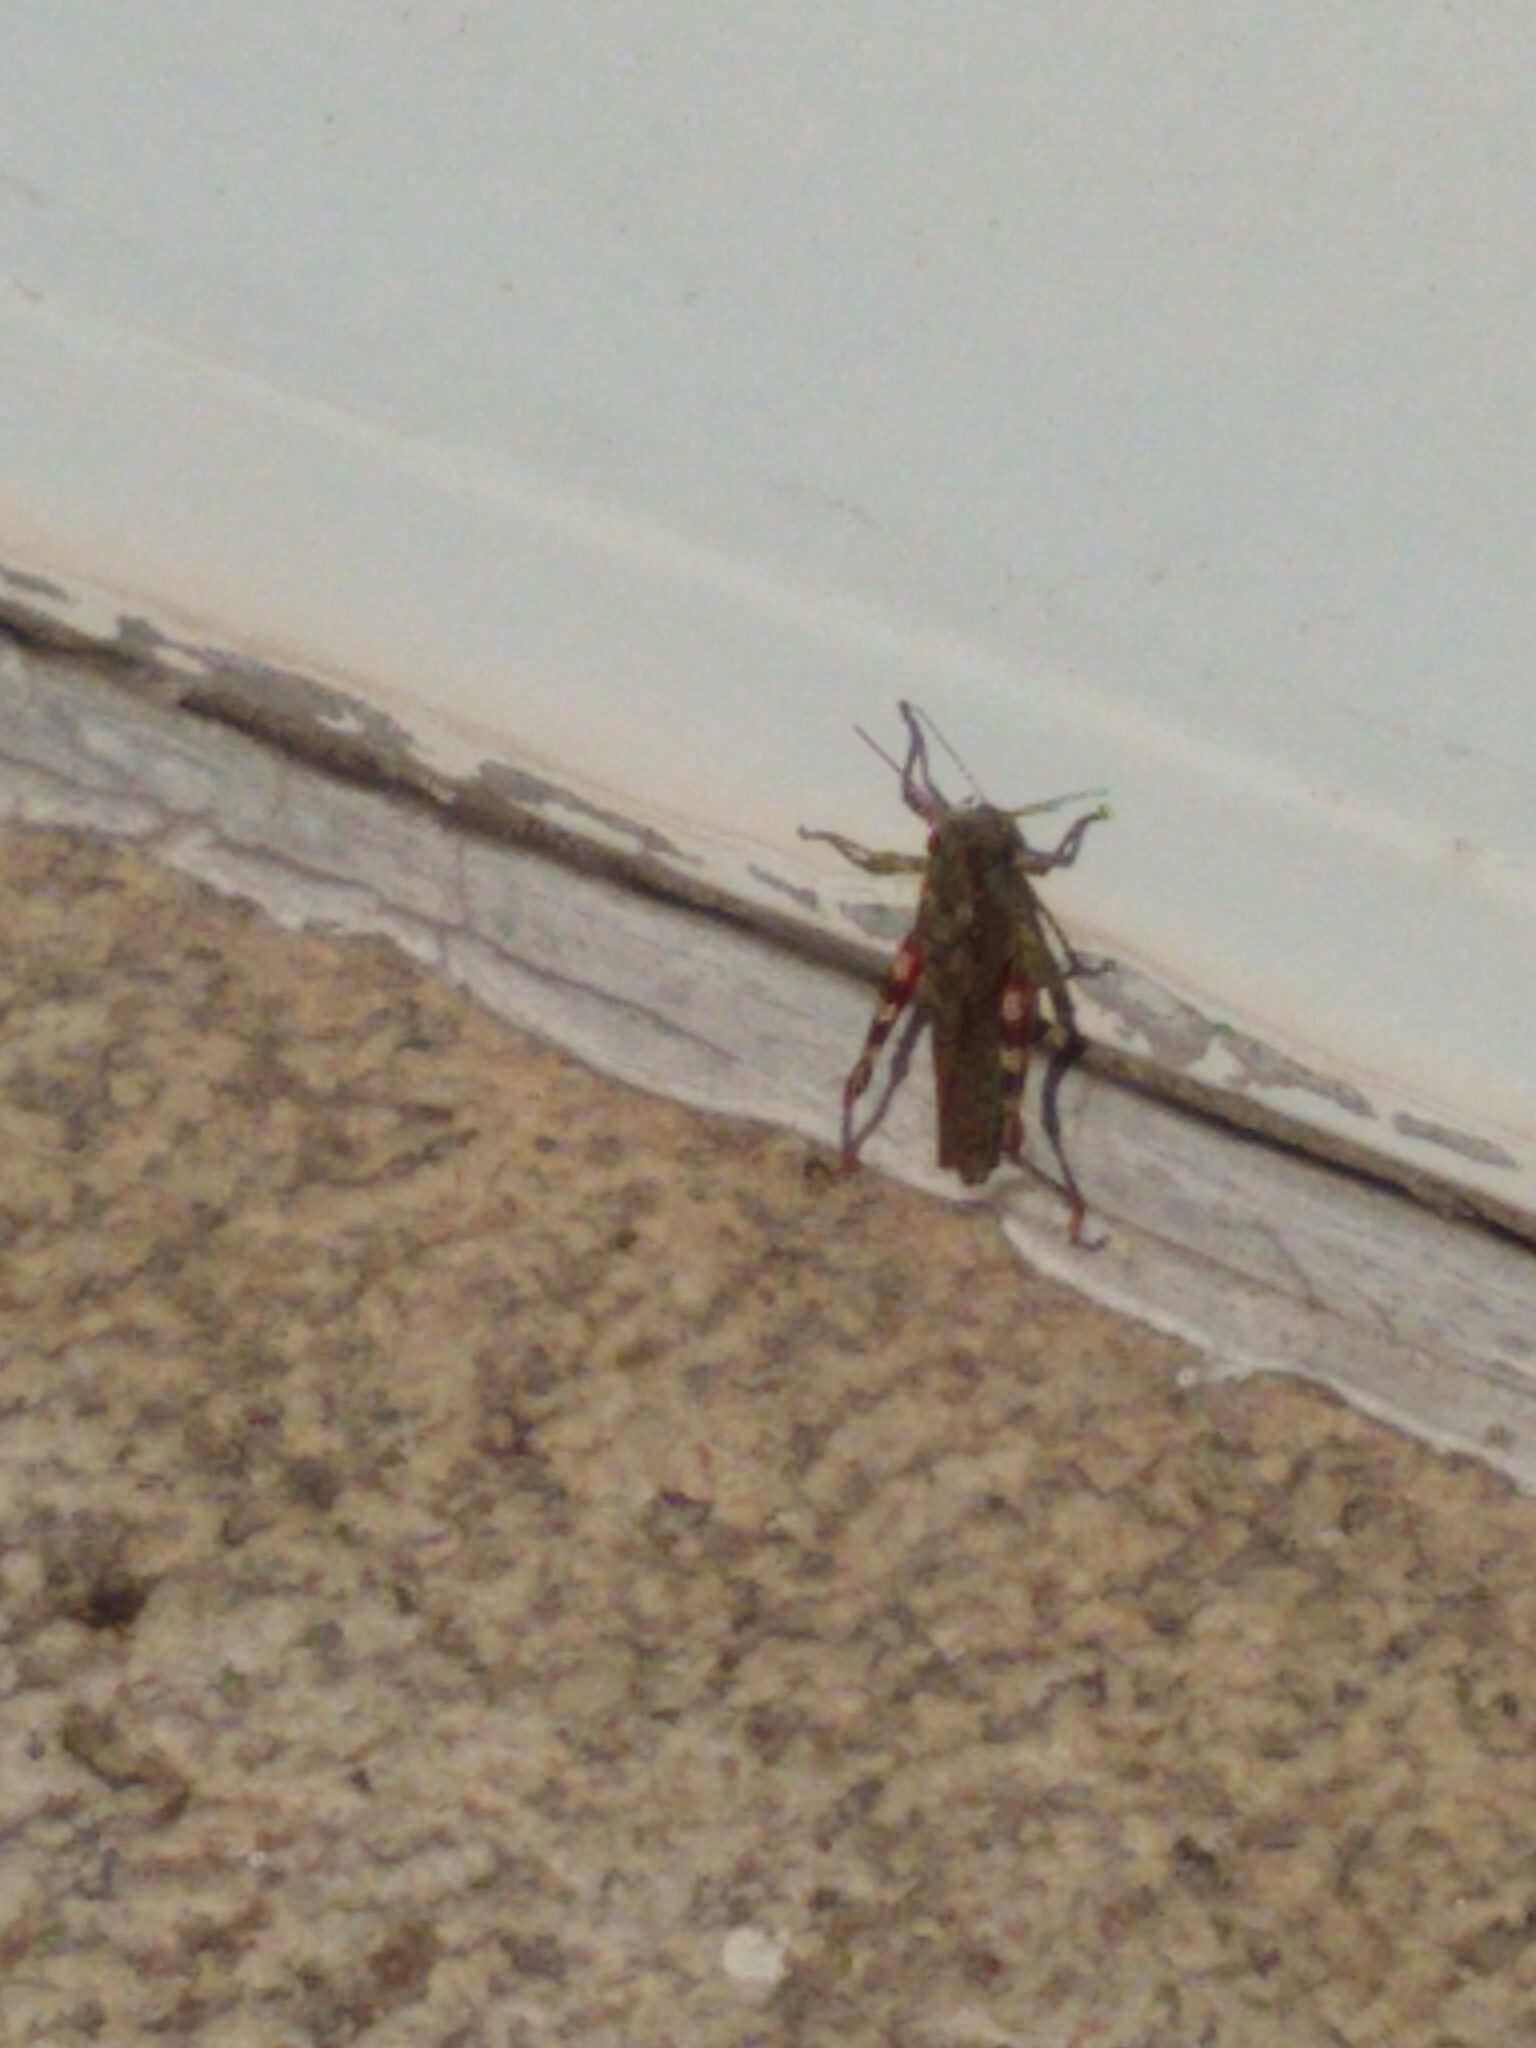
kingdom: Animalia
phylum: Arthropoda
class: Insecta
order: Orthoptera
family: Acrididae
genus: Melanoplus
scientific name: Melanoplus punctulatus
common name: Pine-tree spur-throat grasshopper
